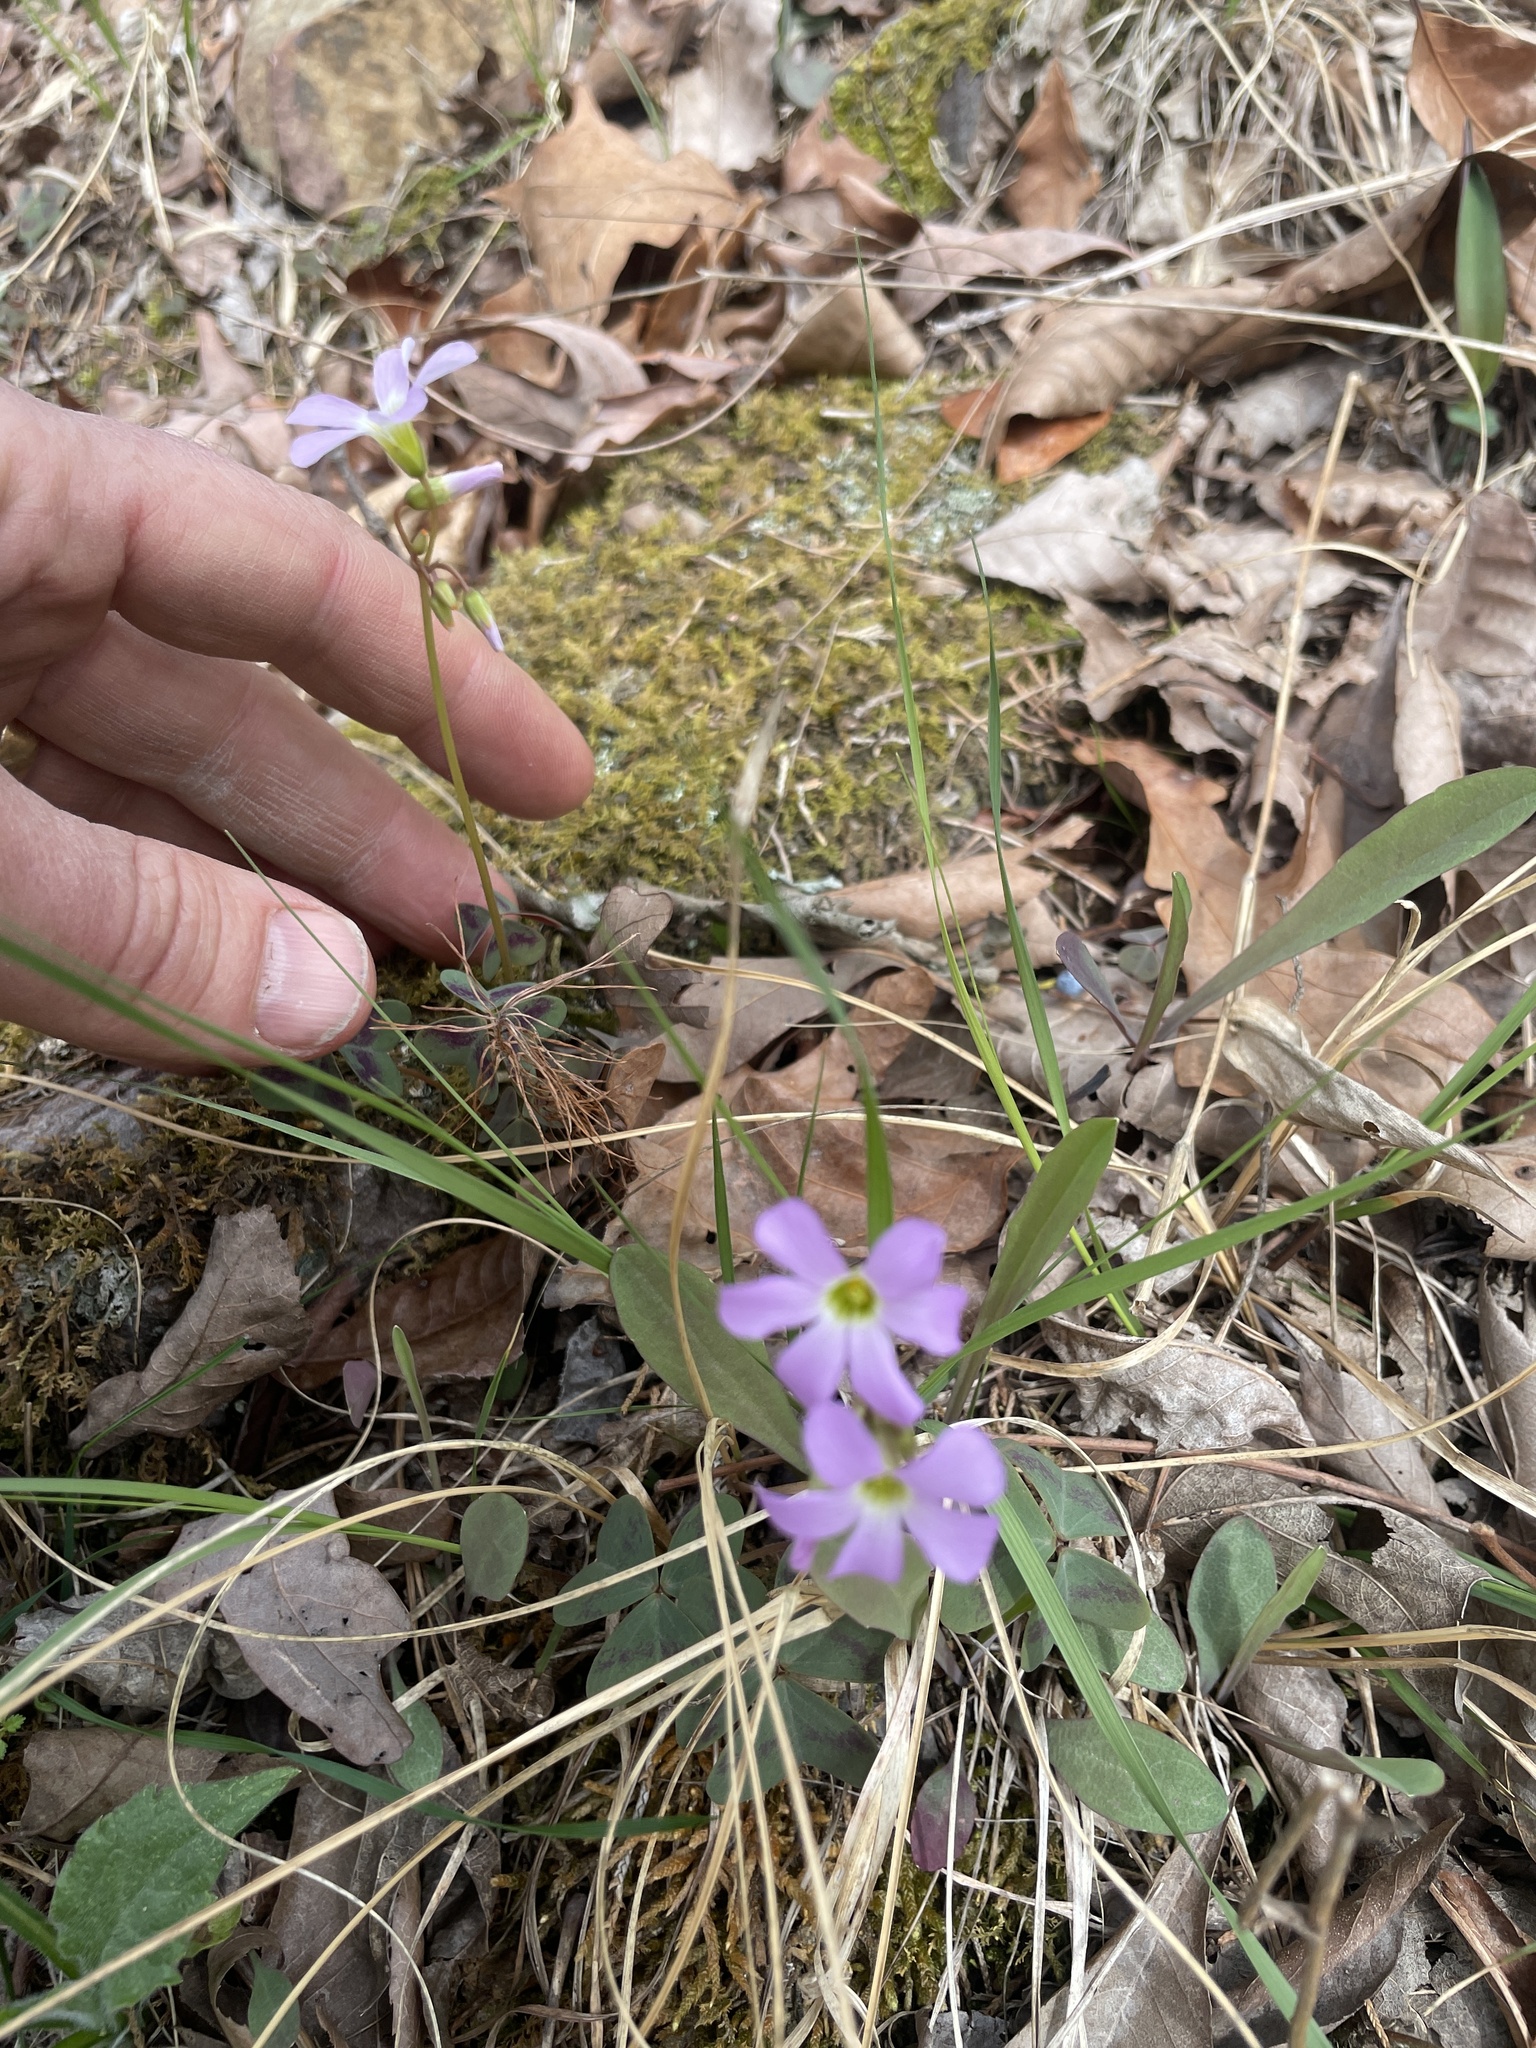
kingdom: Plantae
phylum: Tracheophyta
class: Magnoliopsida
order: Oxalidales
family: Oxalidaceae
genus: Oxalis
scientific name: Oxalis violacea
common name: Violet wood-sorrel
